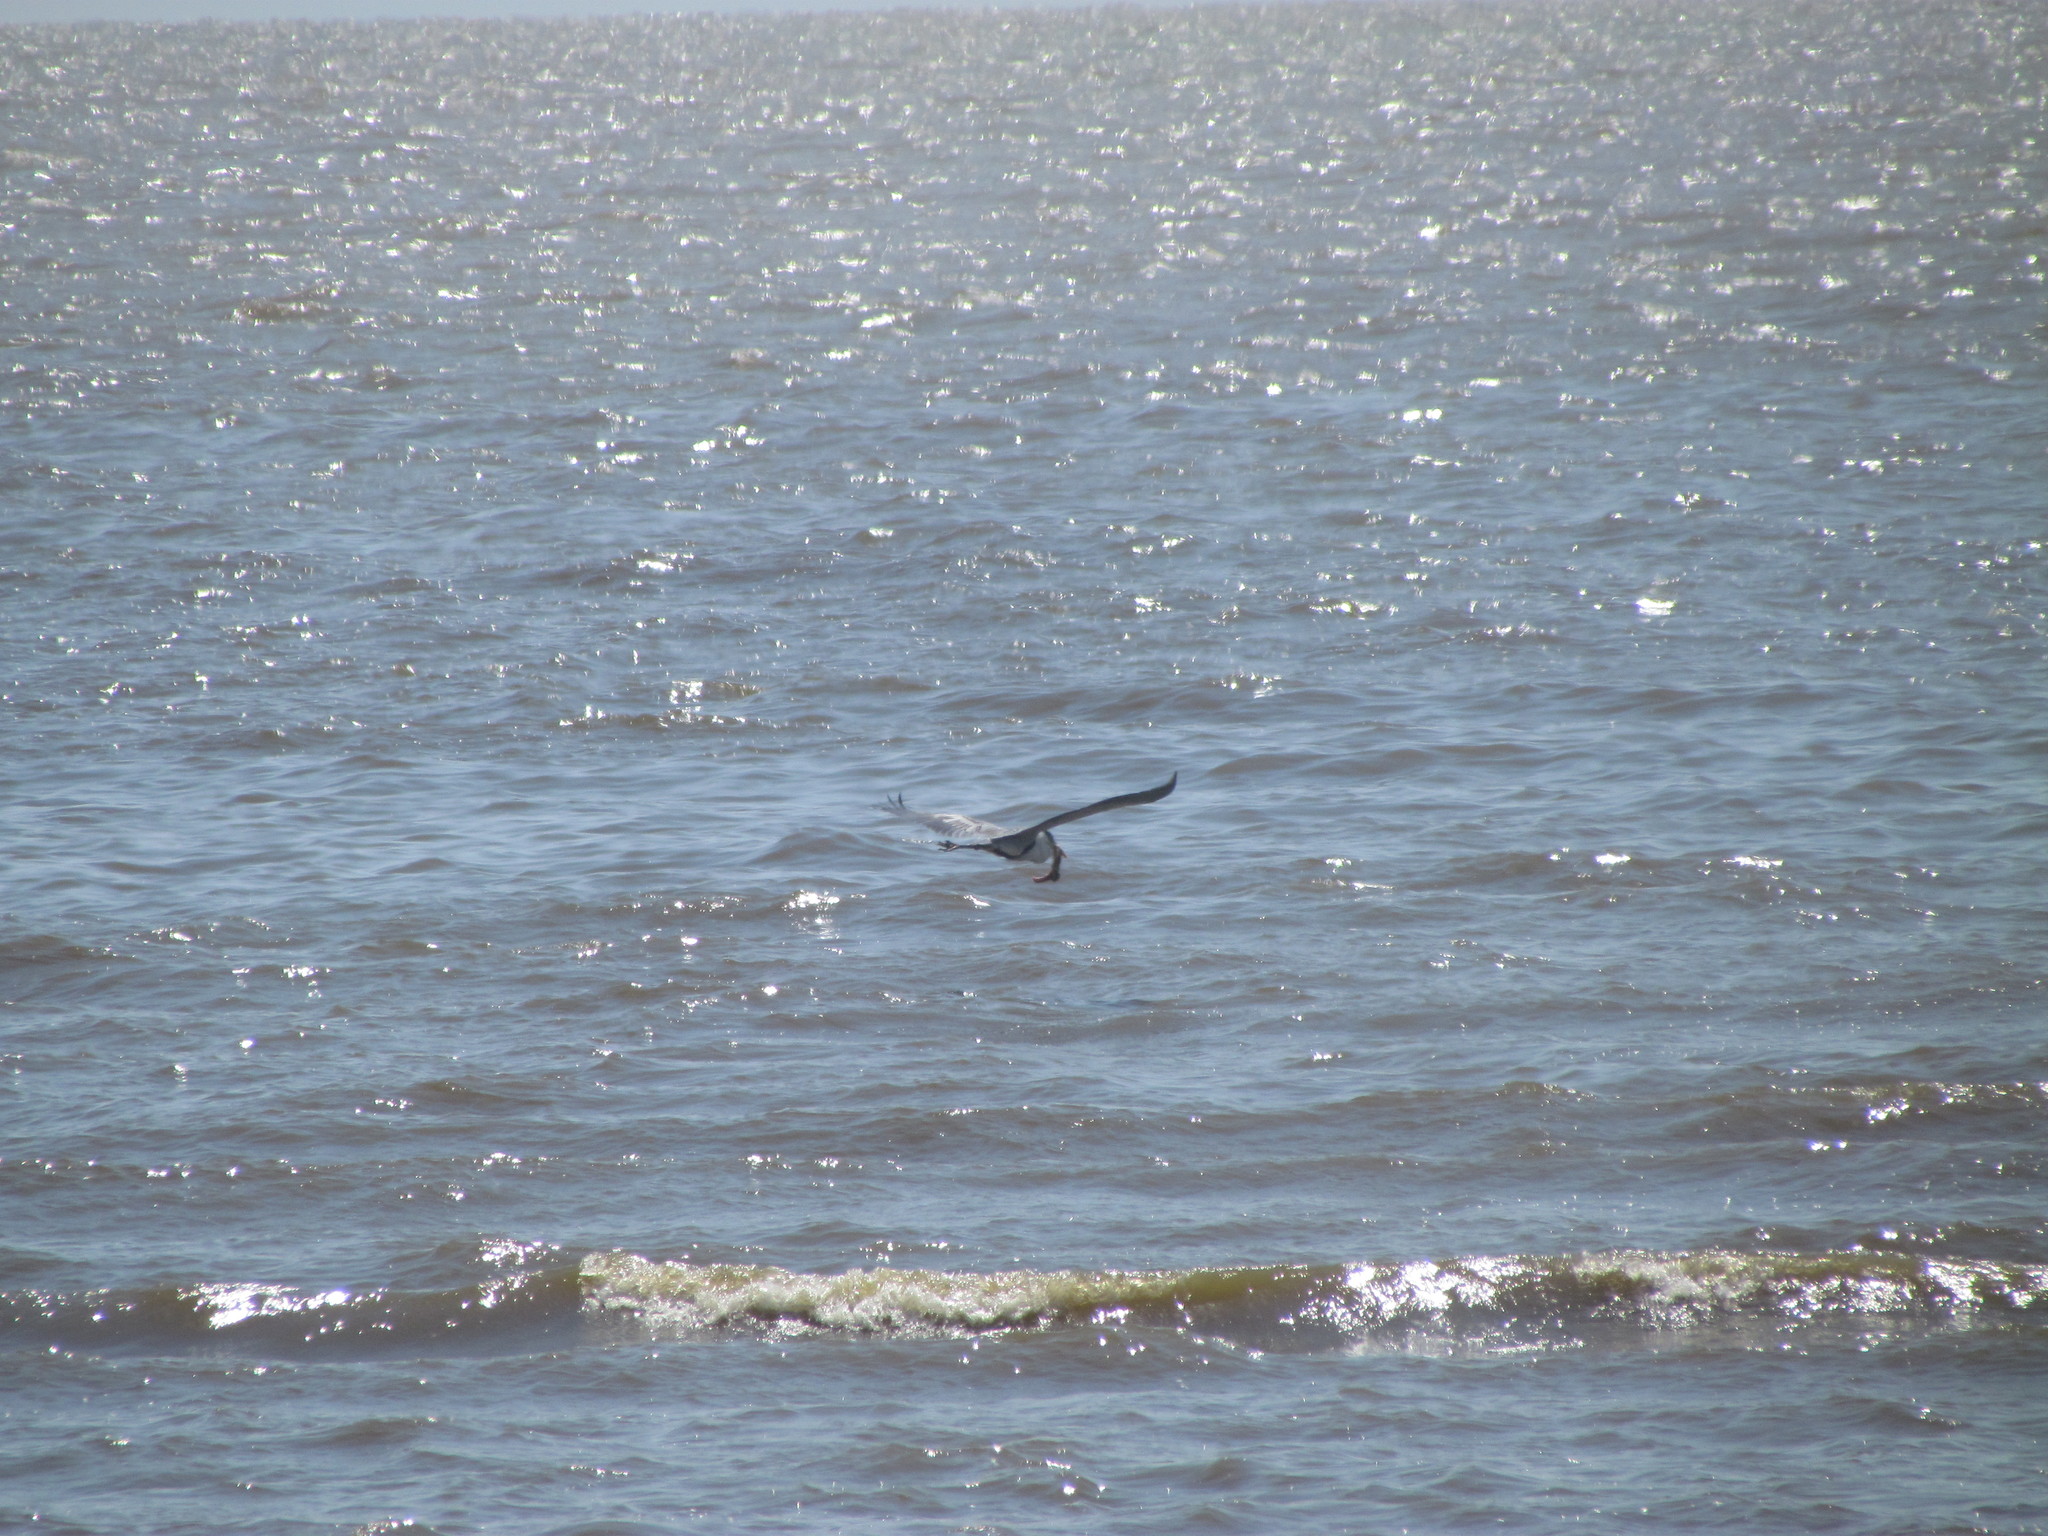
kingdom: Animalia
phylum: Chordata
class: Aves
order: Pelecaniformes
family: Ardeidae
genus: Ardea
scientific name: Ardea cocoi
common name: Cocoi heron
